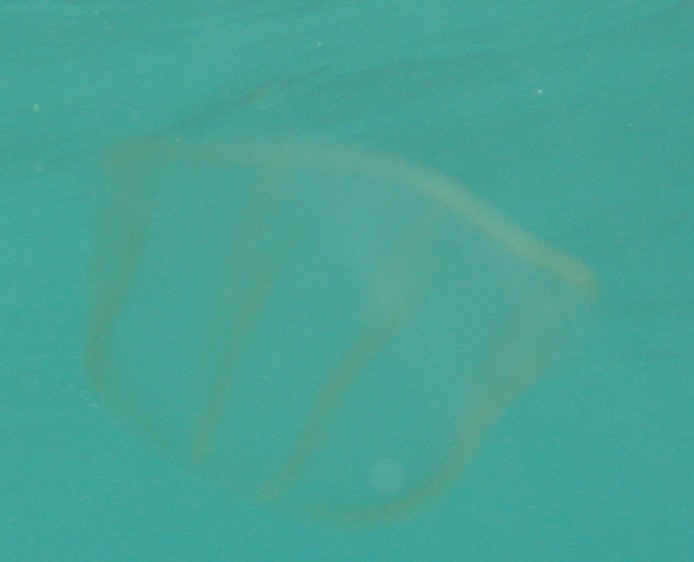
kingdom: Animalia
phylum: Ctenophora
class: Nuda
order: Beroida
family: Beroidae
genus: Beroe
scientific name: Beroe
